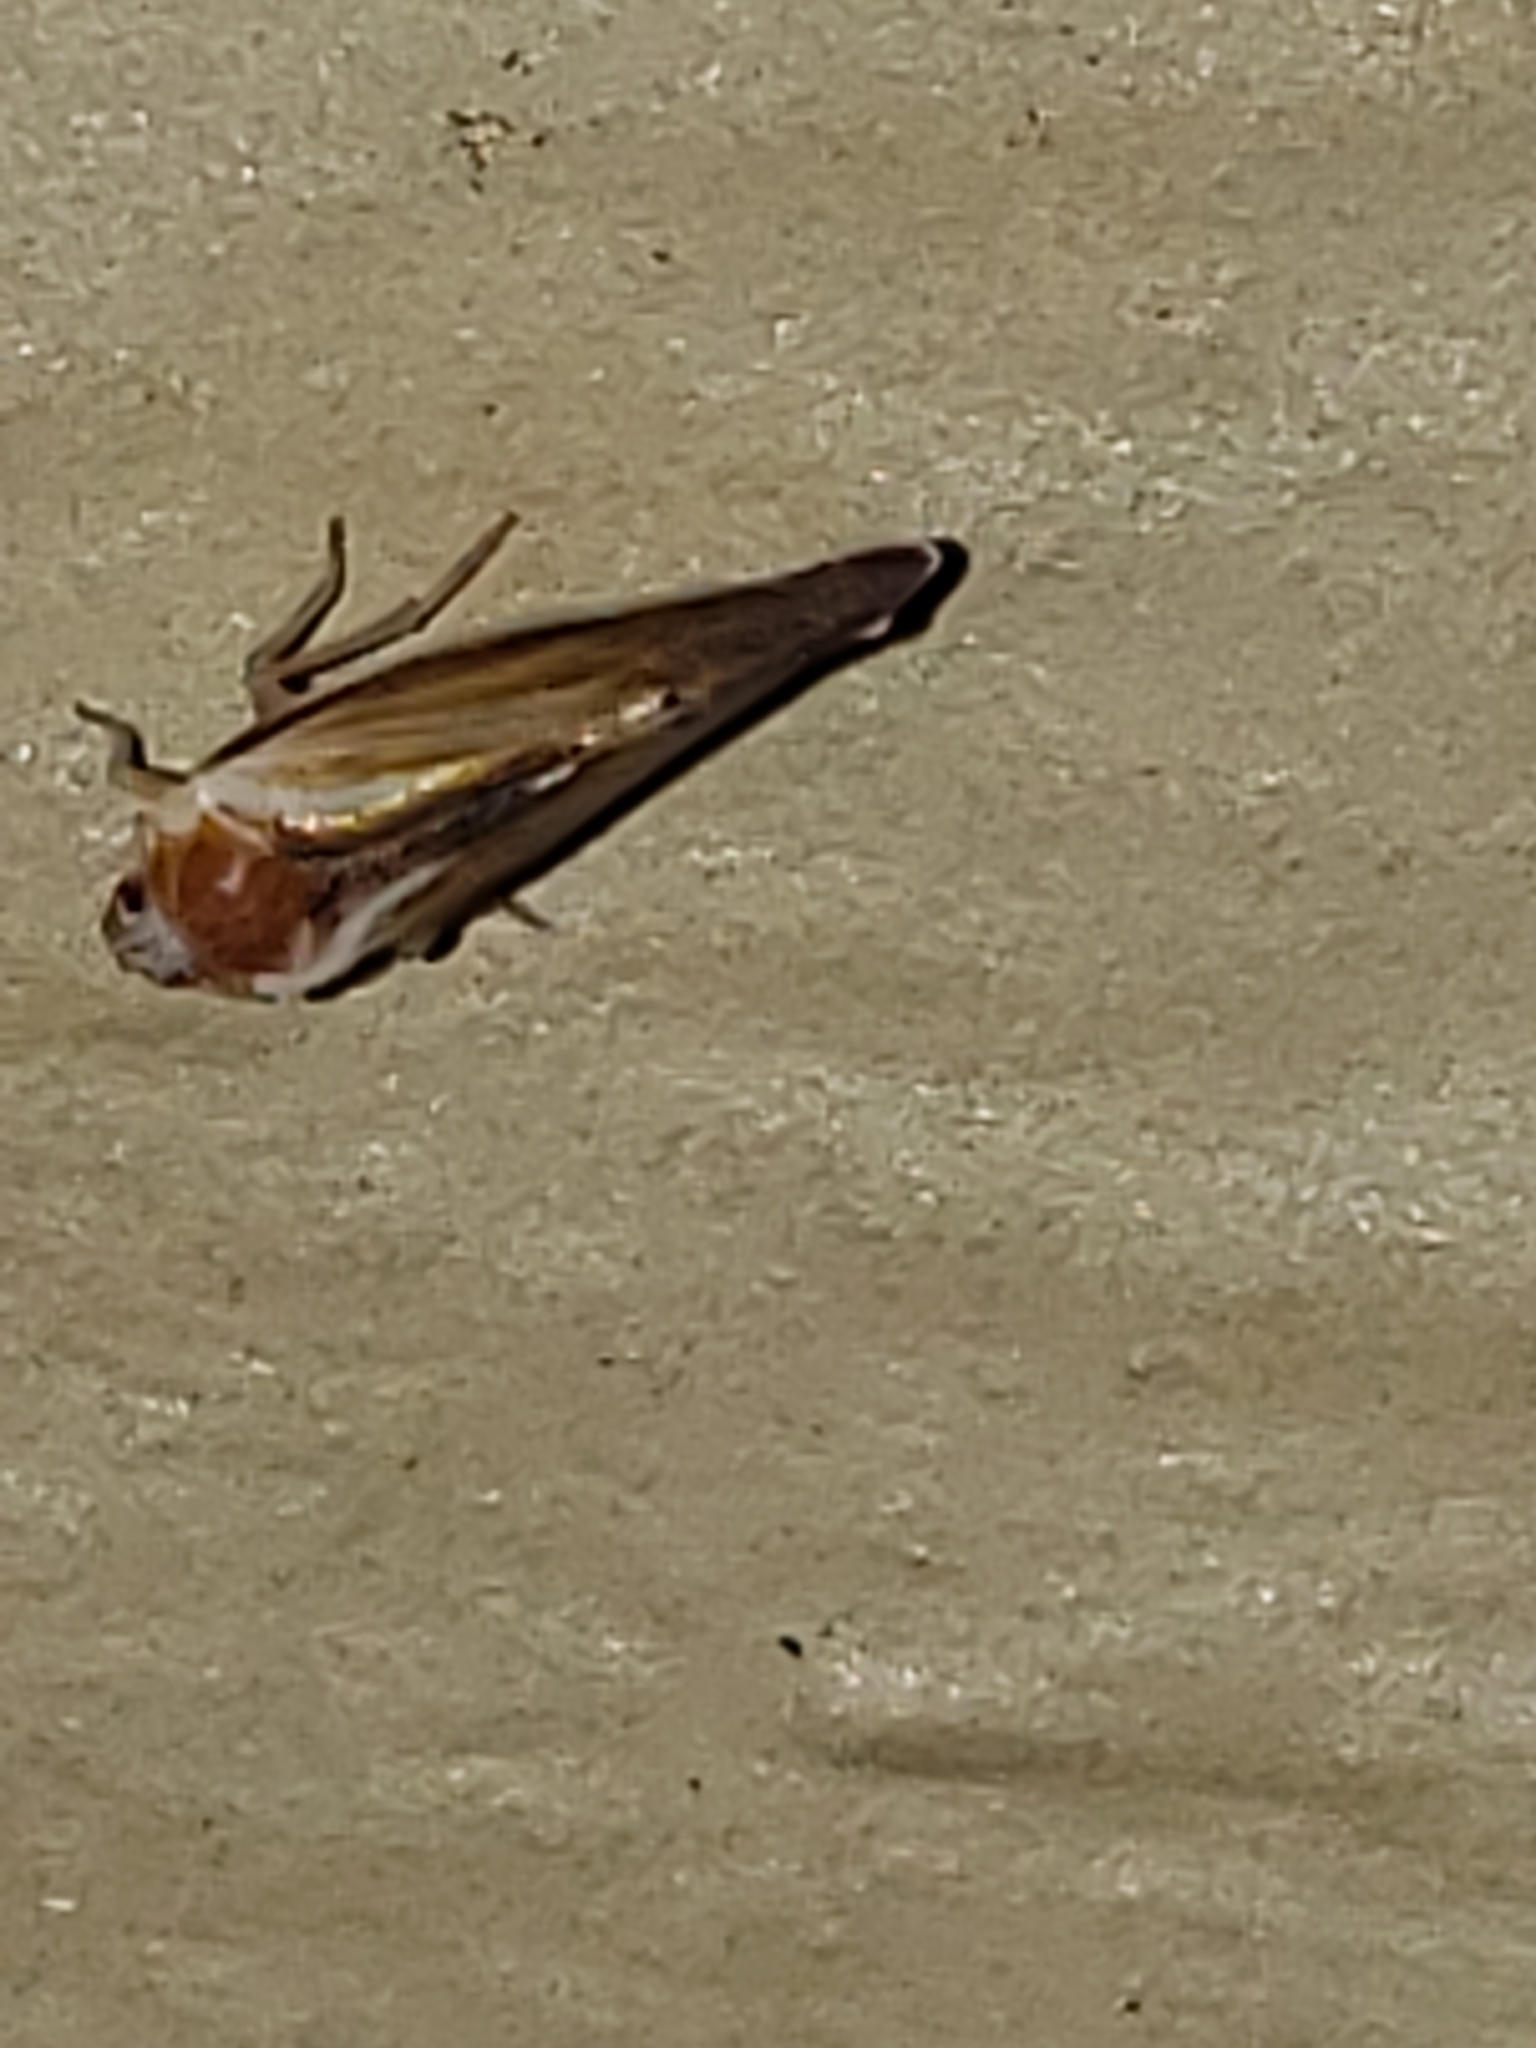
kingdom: Animalia
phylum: Arthropoda
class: Insecta
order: Hemiptera
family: Derbidae
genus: Omolicna
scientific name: Omolicna uhleri
